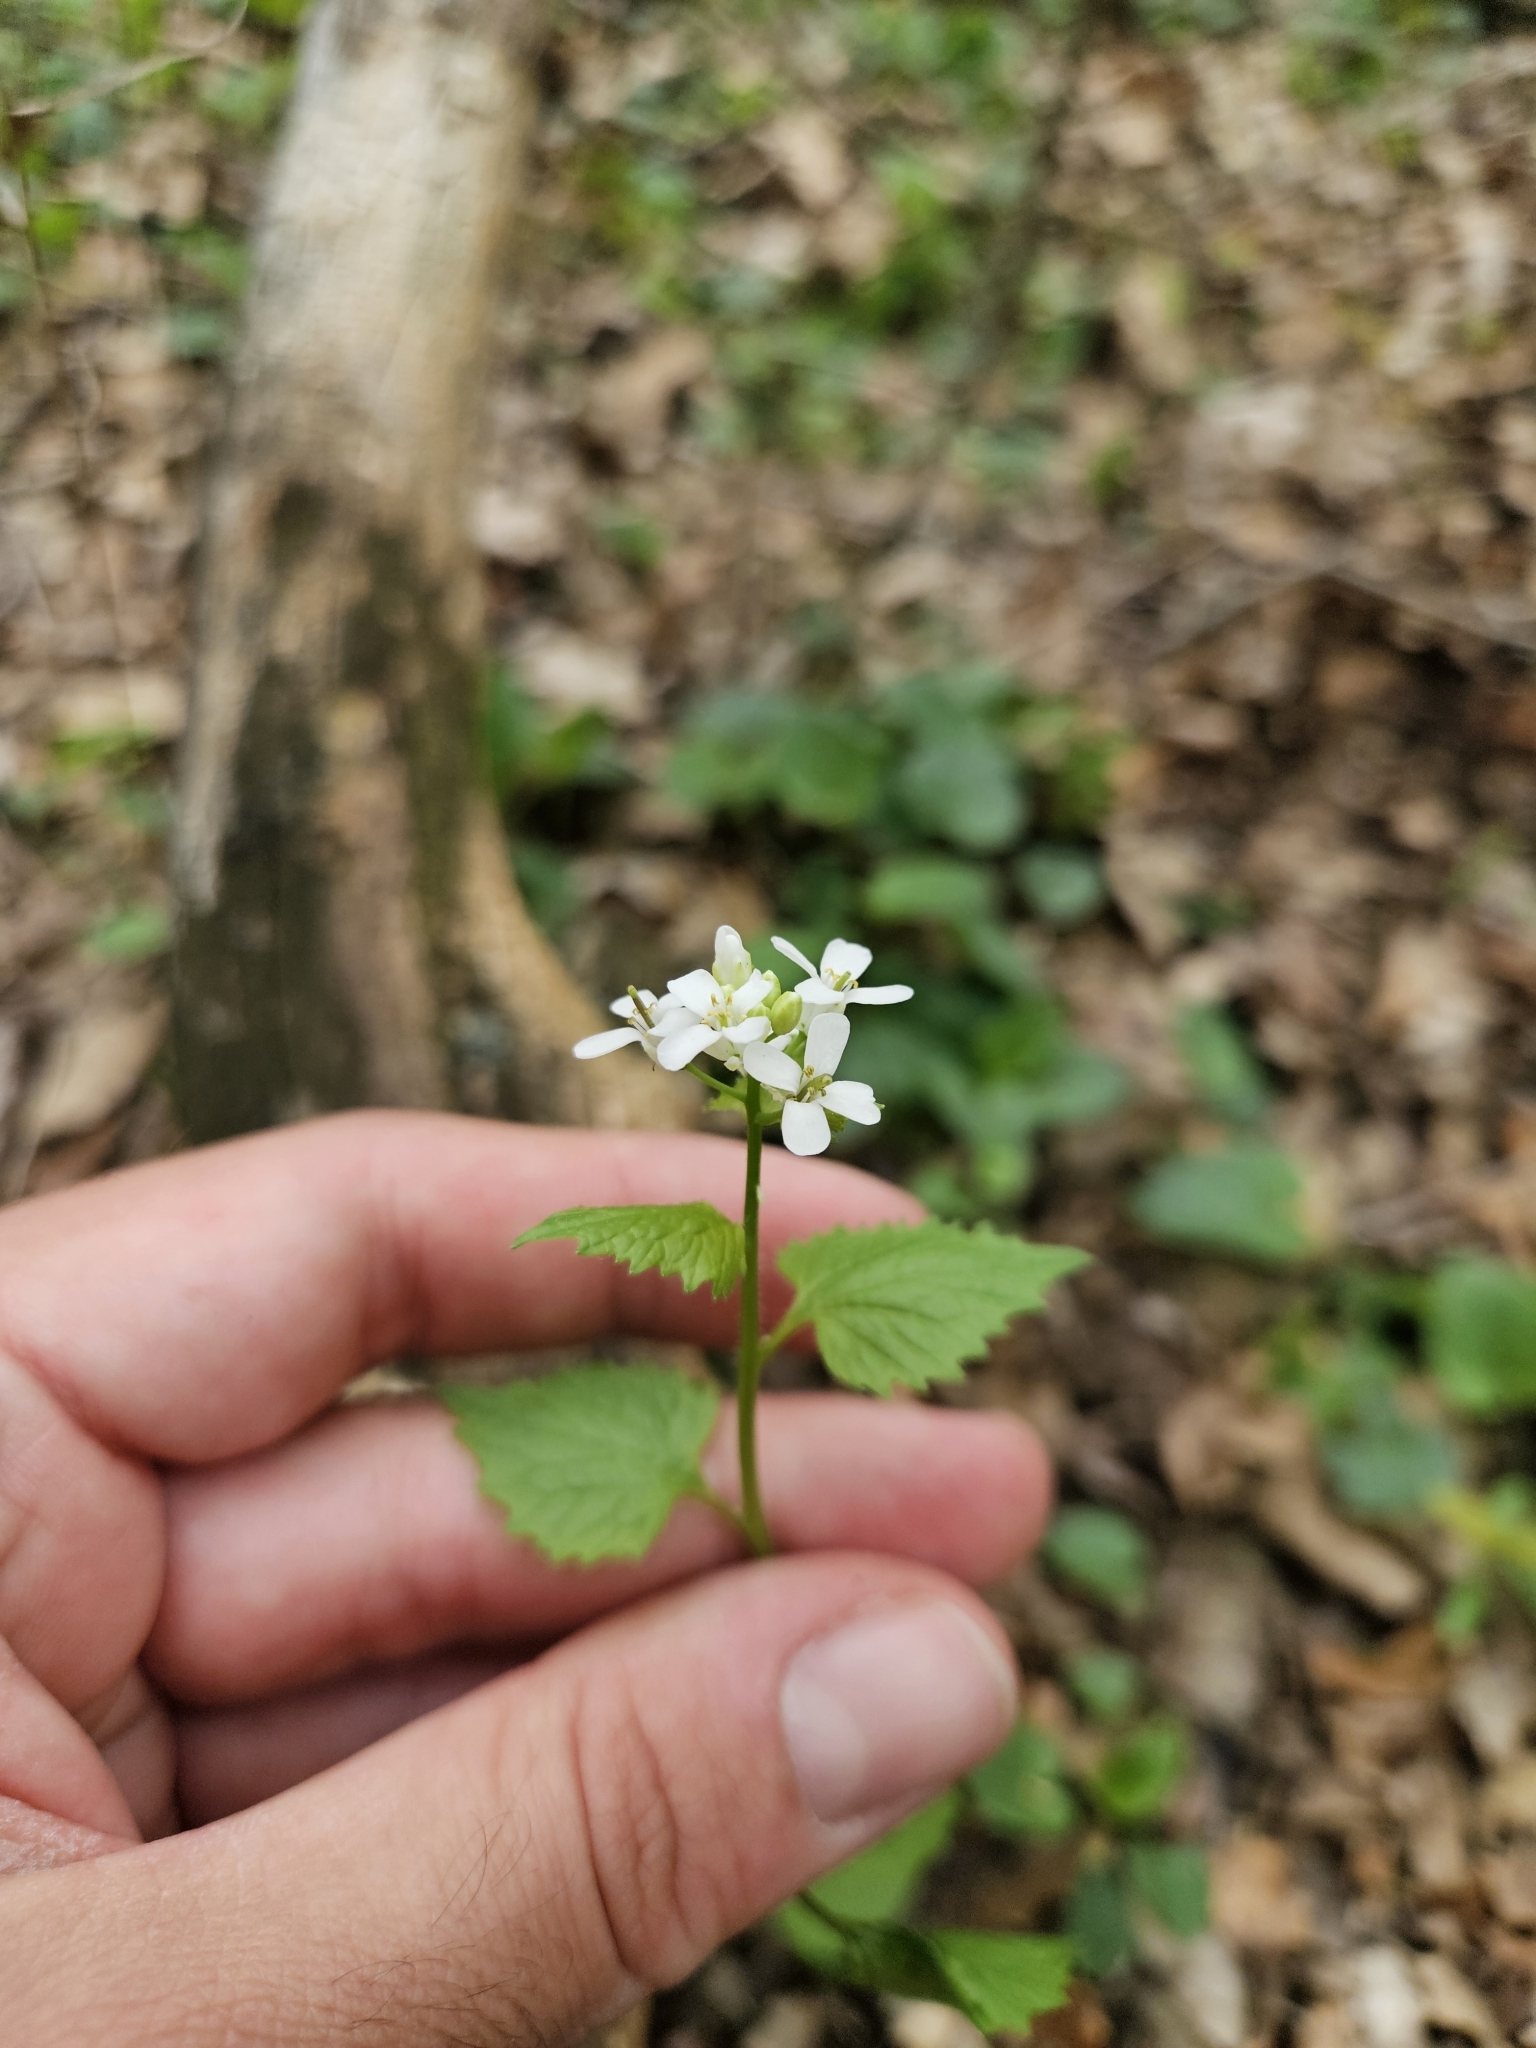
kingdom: Plantae
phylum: Tracheophyta
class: Magnoliopsida
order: Brassicales
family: Brassicaceae
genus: Alliaria
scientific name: Alliaria petiolata
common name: Garlic mustard
